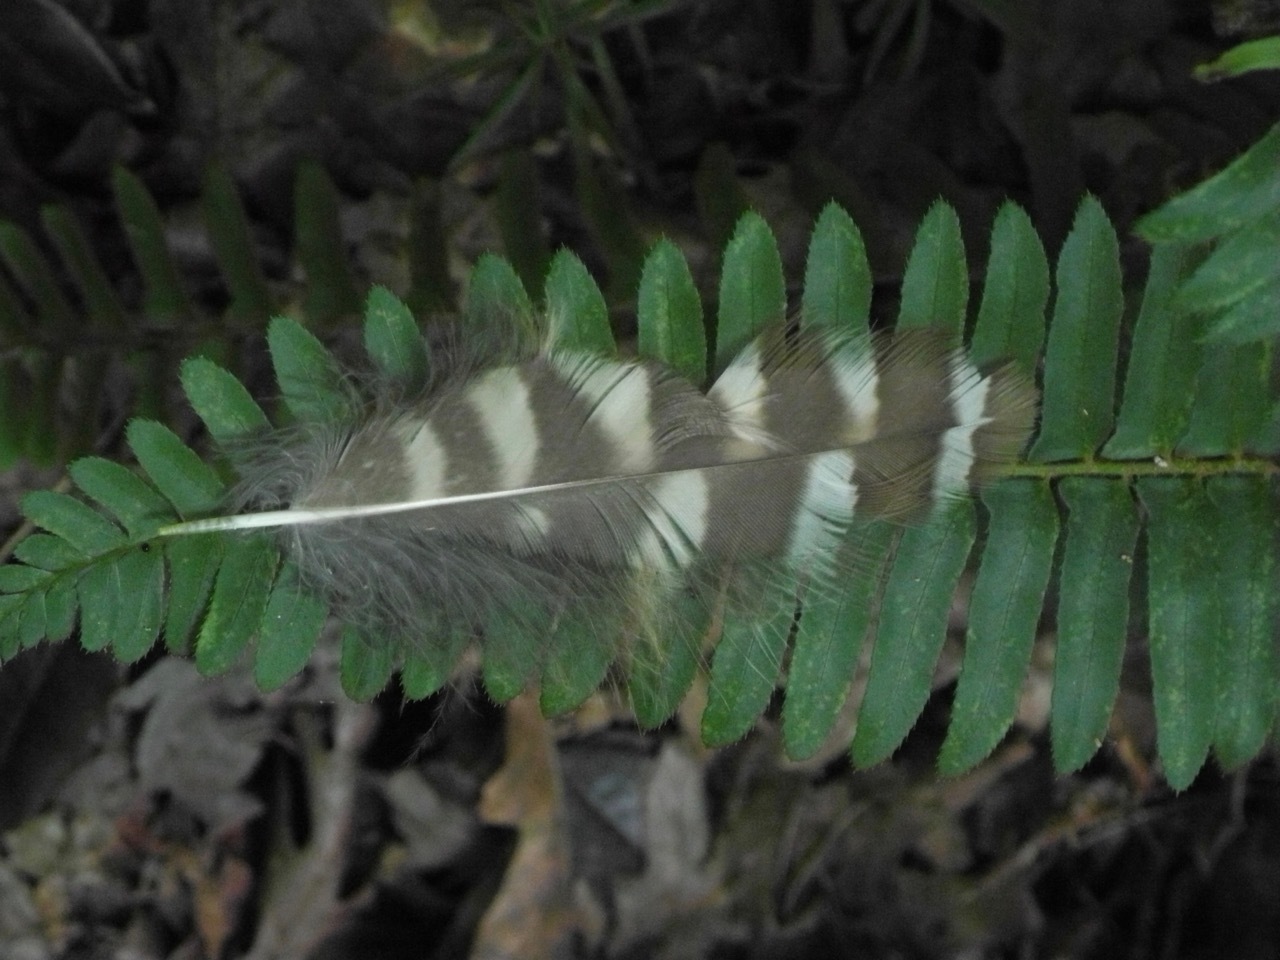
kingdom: Animalia
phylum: Chordata
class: Aves
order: Strigiformes
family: Strigidae
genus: Strix
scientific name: Strix varia
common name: Barred owl
